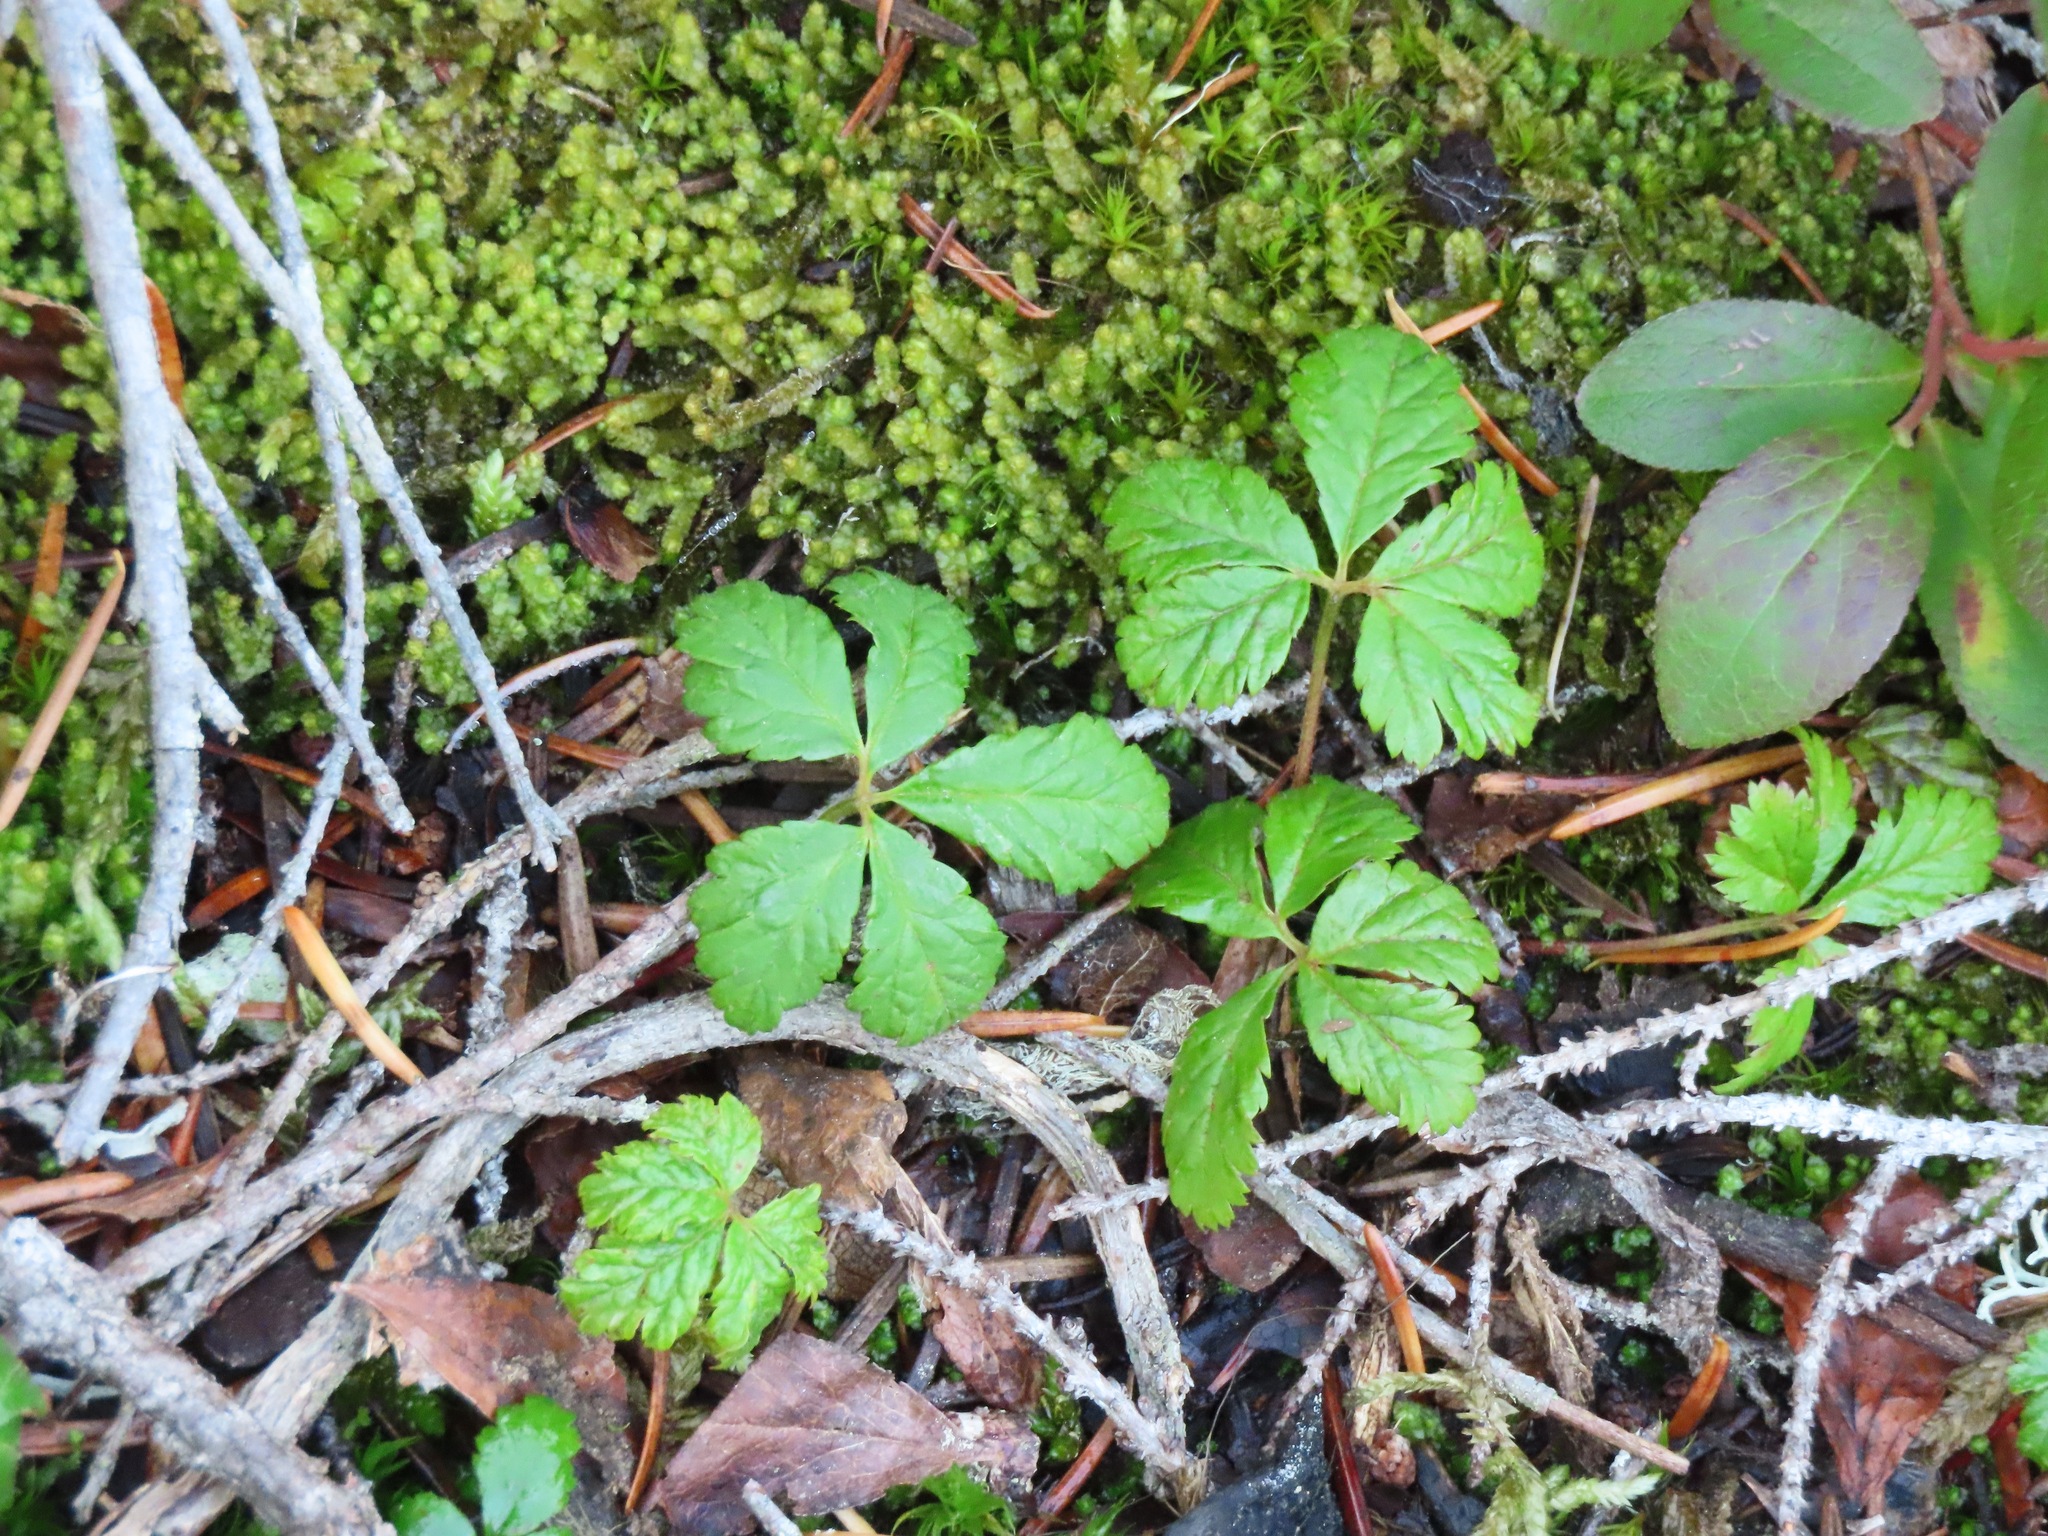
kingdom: Plantae
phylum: Tracheophyta
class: Magnoliopsida
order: Rosales
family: Rosaceae
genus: Rubus
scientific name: Rubus pedatus
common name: Creeping raspberry
